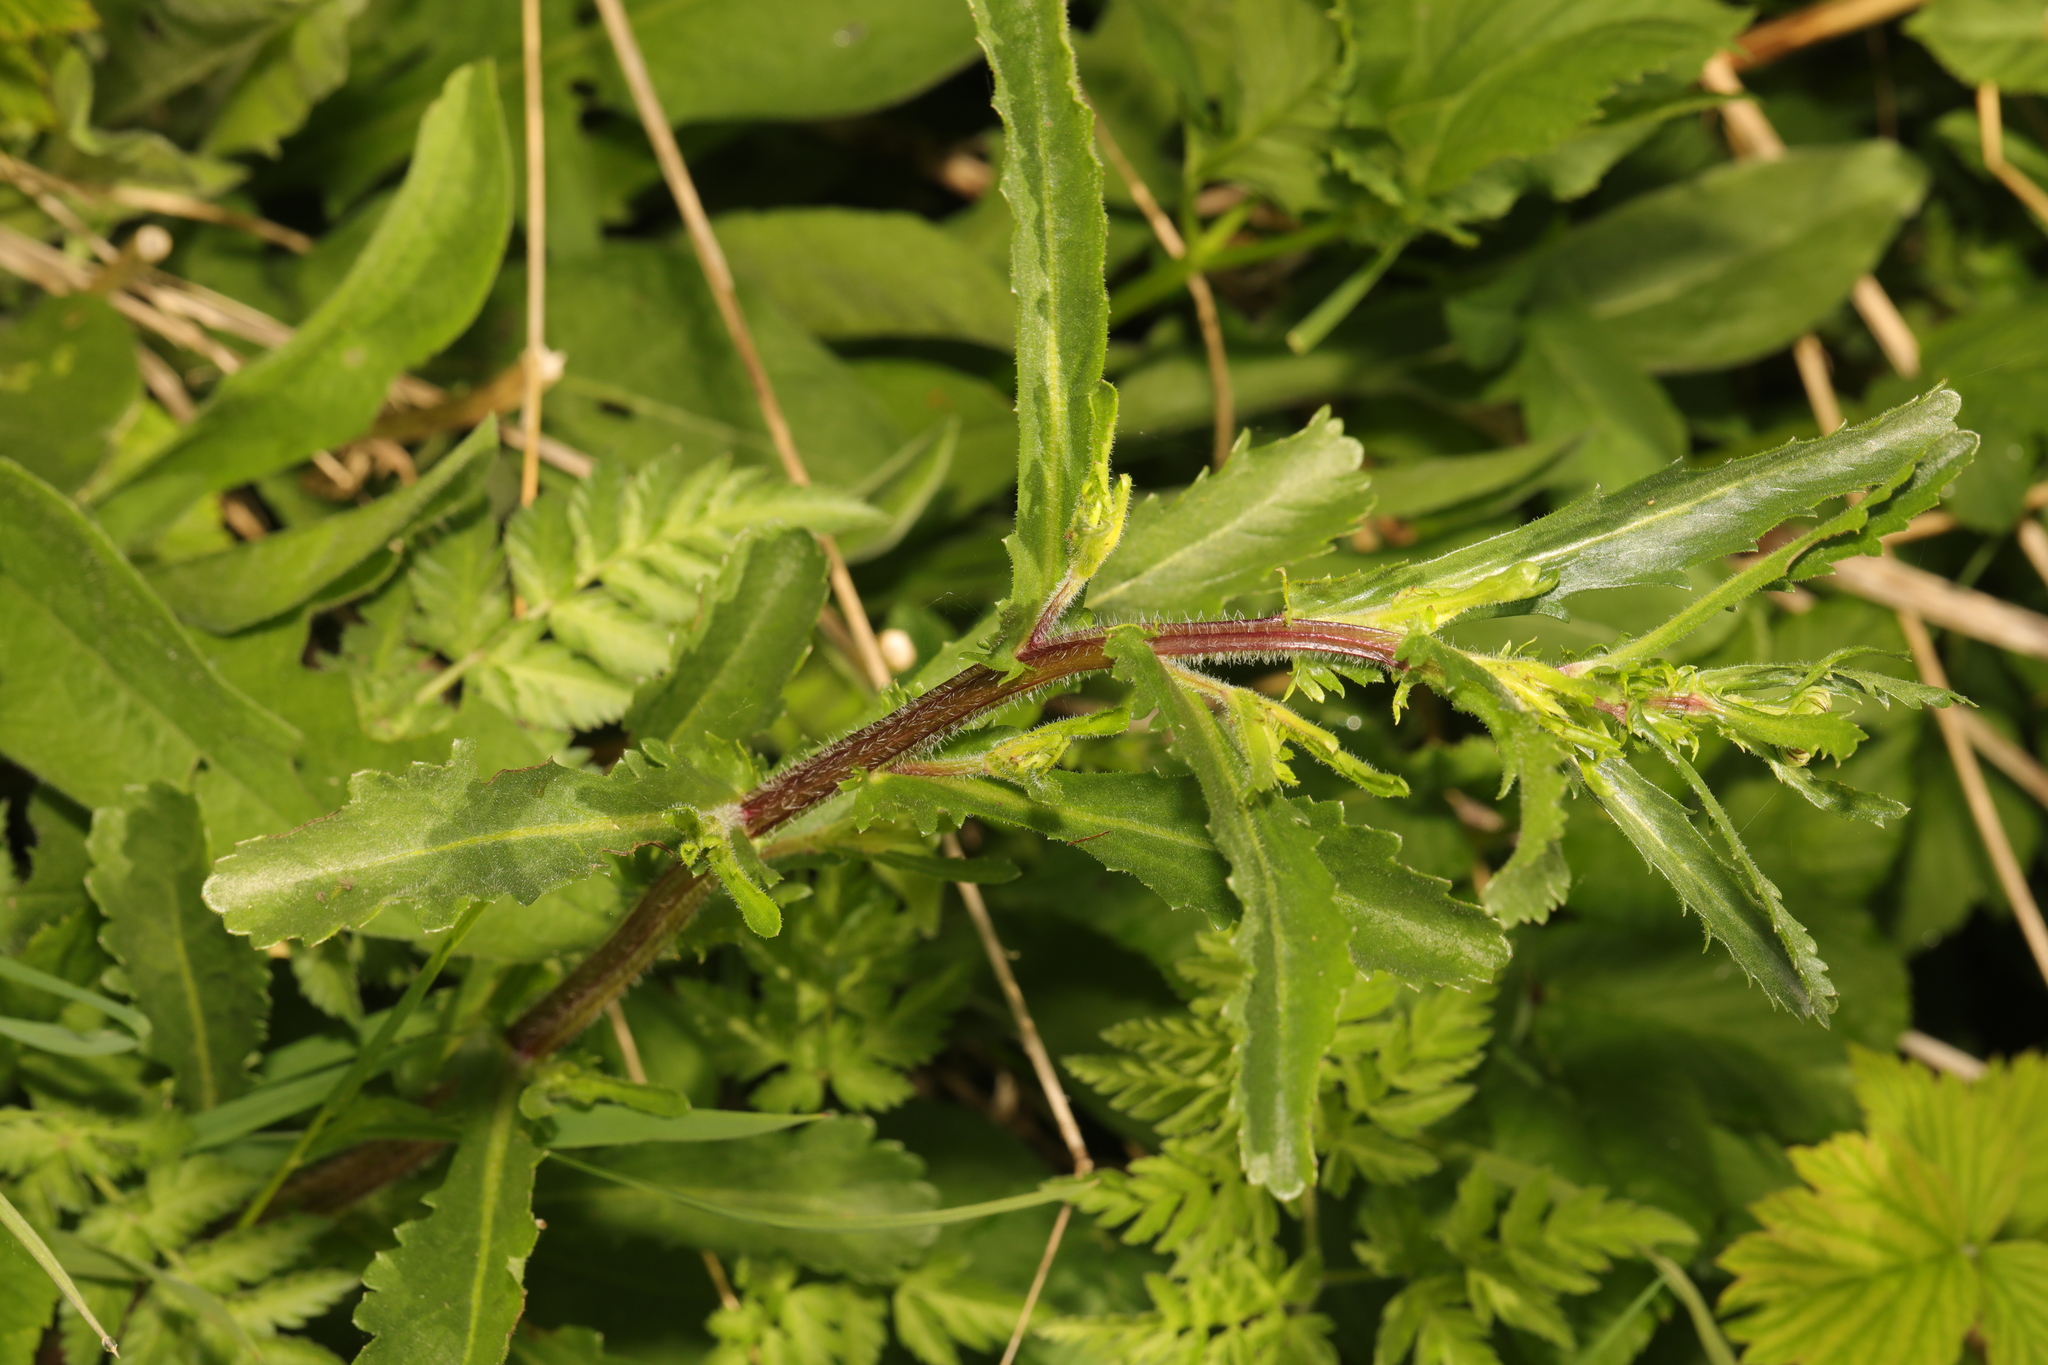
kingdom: Plantae
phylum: Tracheophyta
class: Magnoliopsida
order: Asterales
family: Asteraceae
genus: Leucanthemum
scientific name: Leucanthemum vulgare
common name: Oxeye daisy
